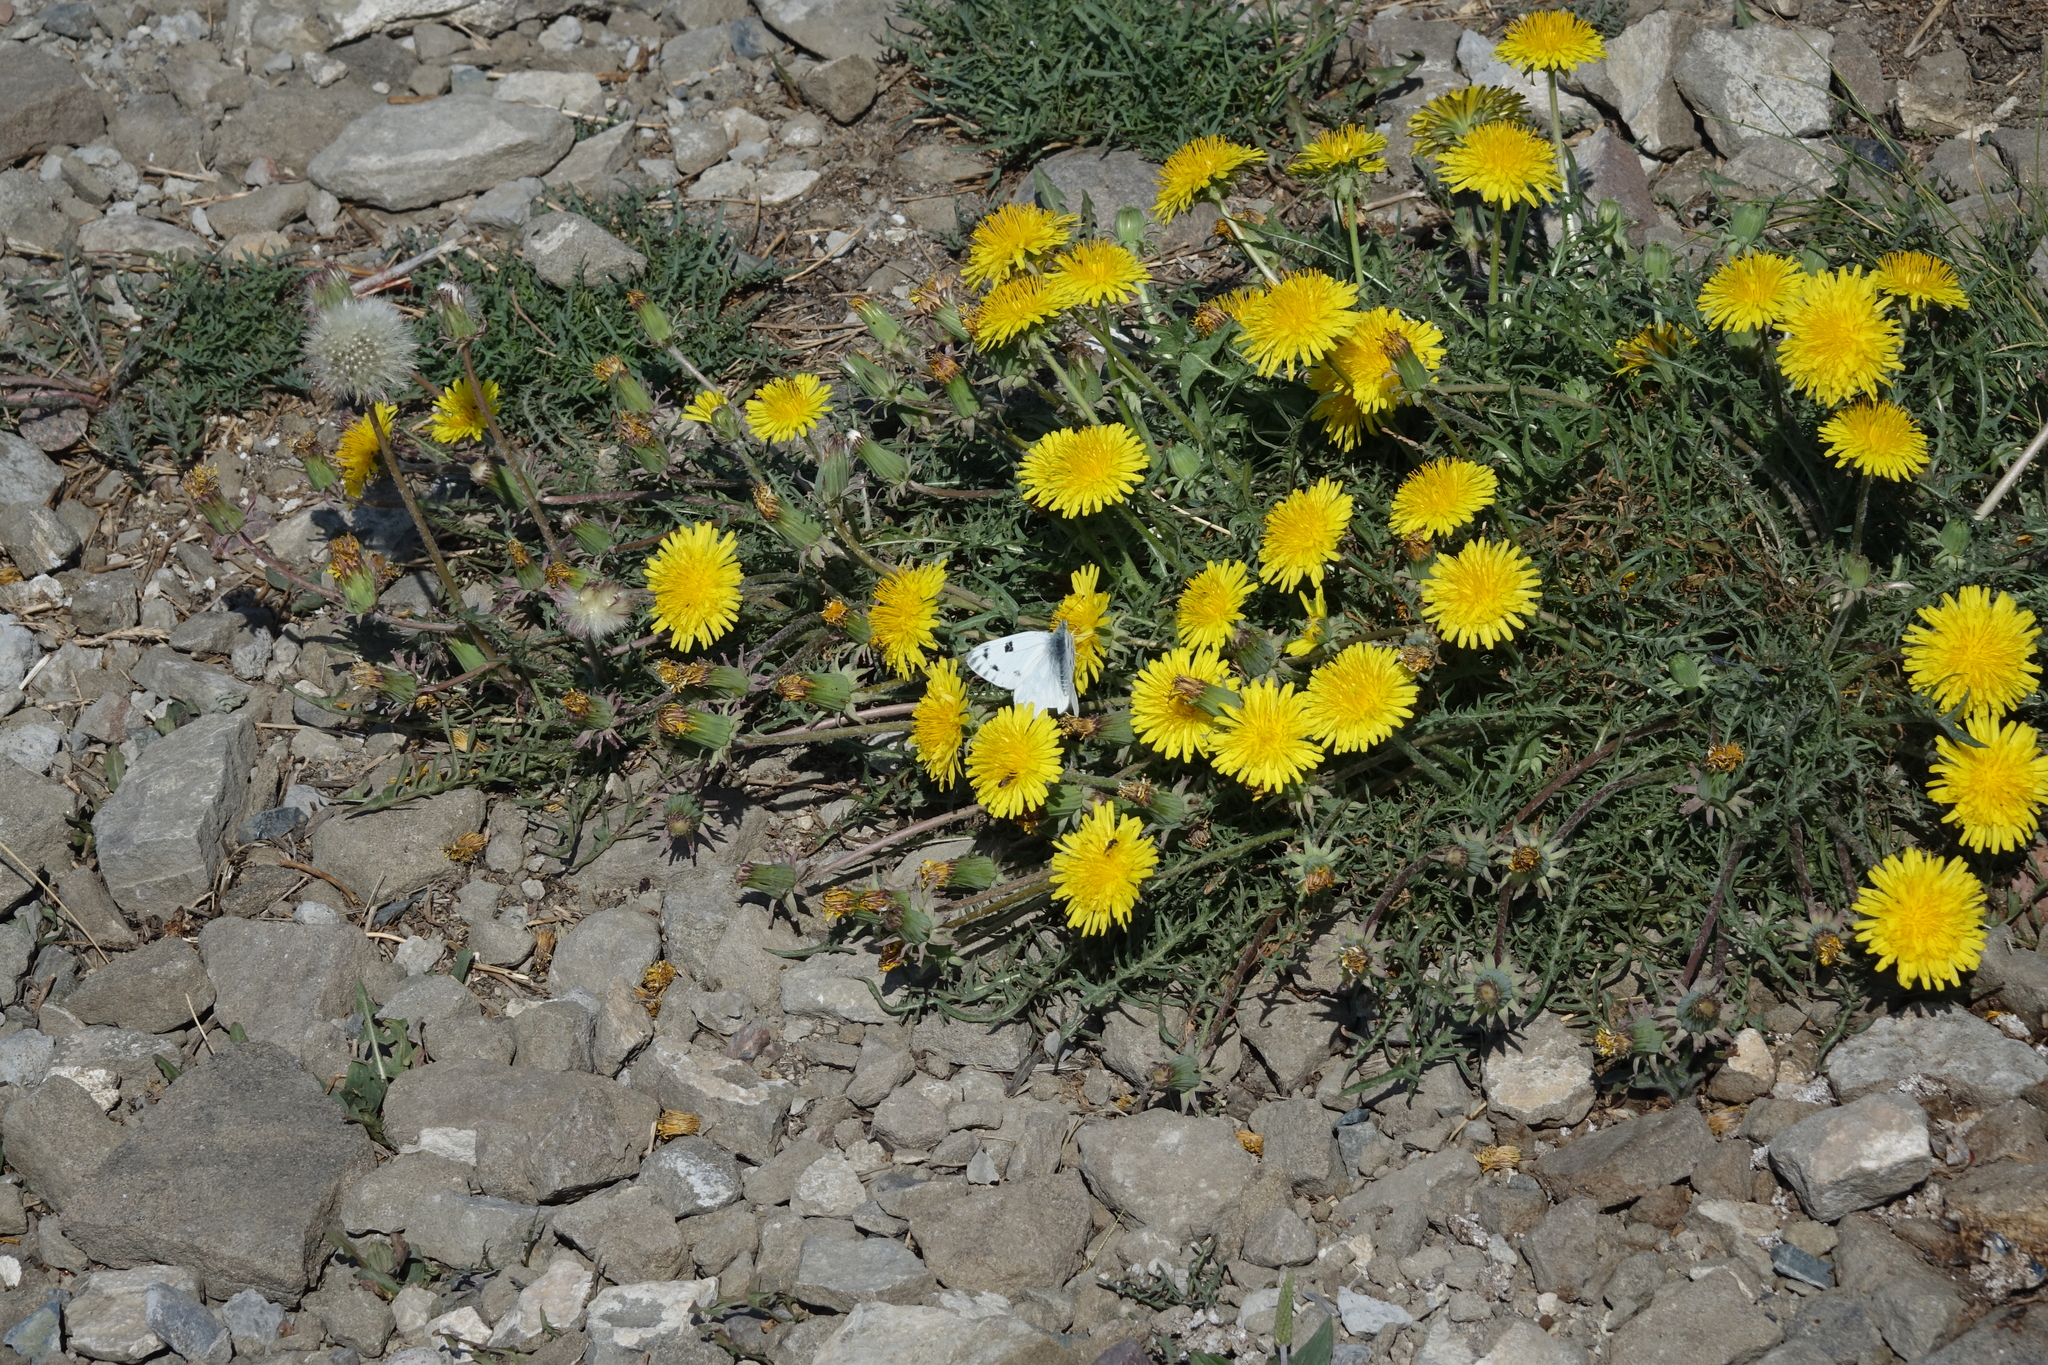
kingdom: Animalia
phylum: Arthropoda
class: Insecta
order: Lepidoptera
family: Pieridae
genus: Pontia
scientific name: Pontia callidice
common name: Peak white
